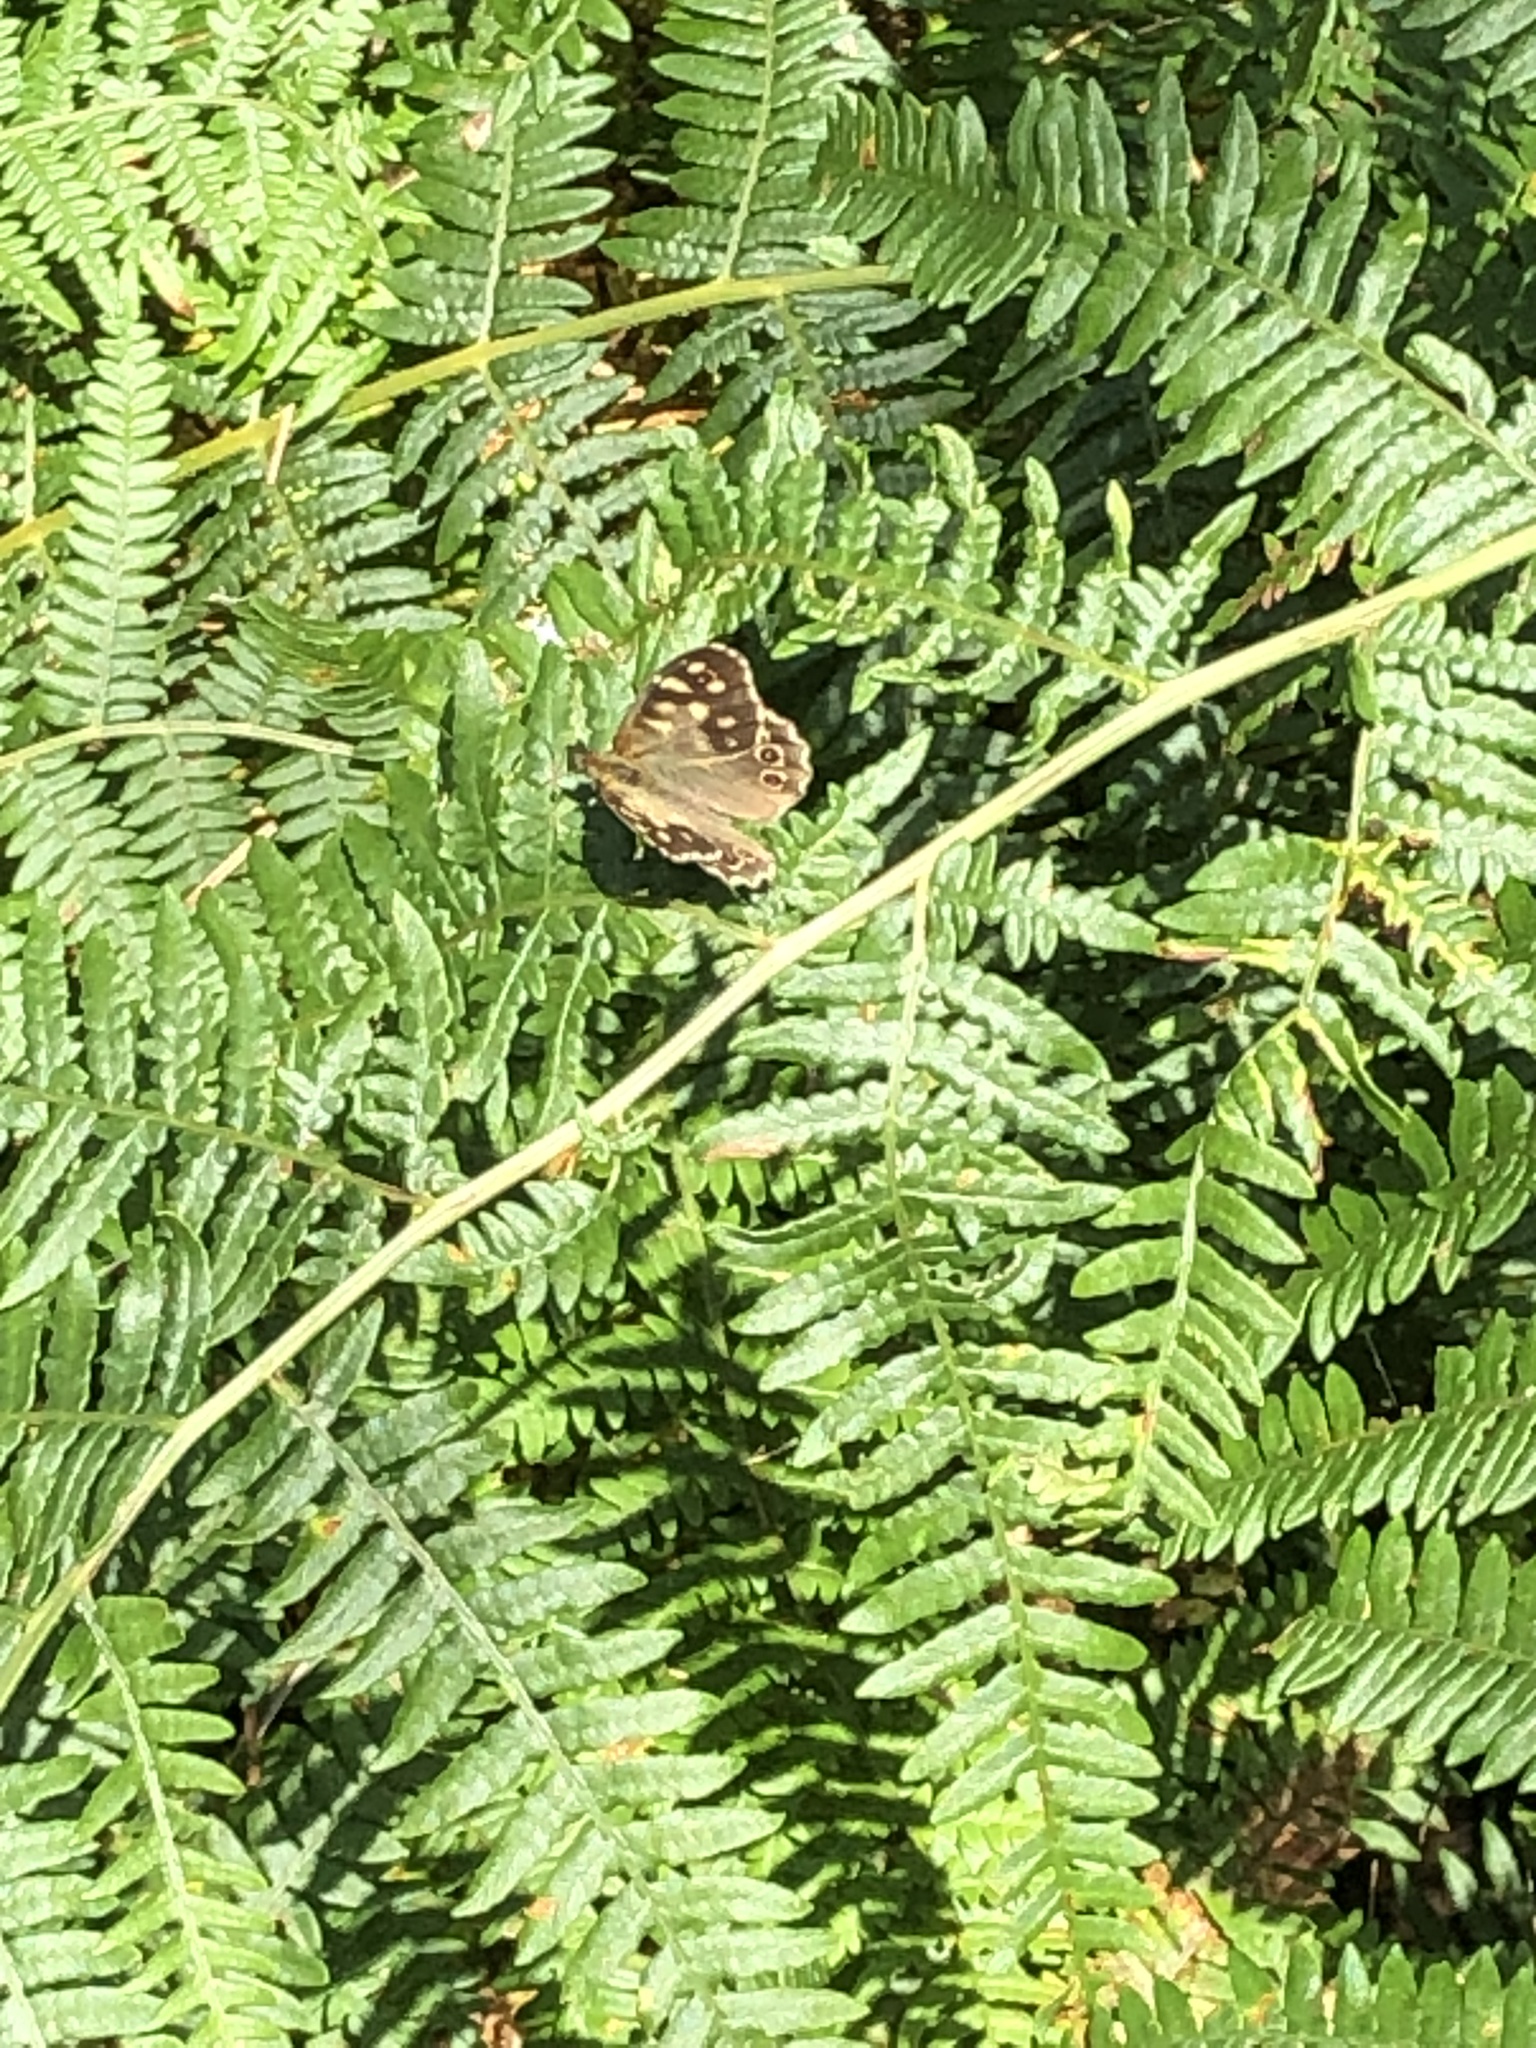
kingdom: Animalia
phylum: Arthropoda
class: Insecta
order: Lepidoptera
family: Nymphalidae
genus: Pararge
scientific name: Pararge aegeria
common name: Speckled wood
